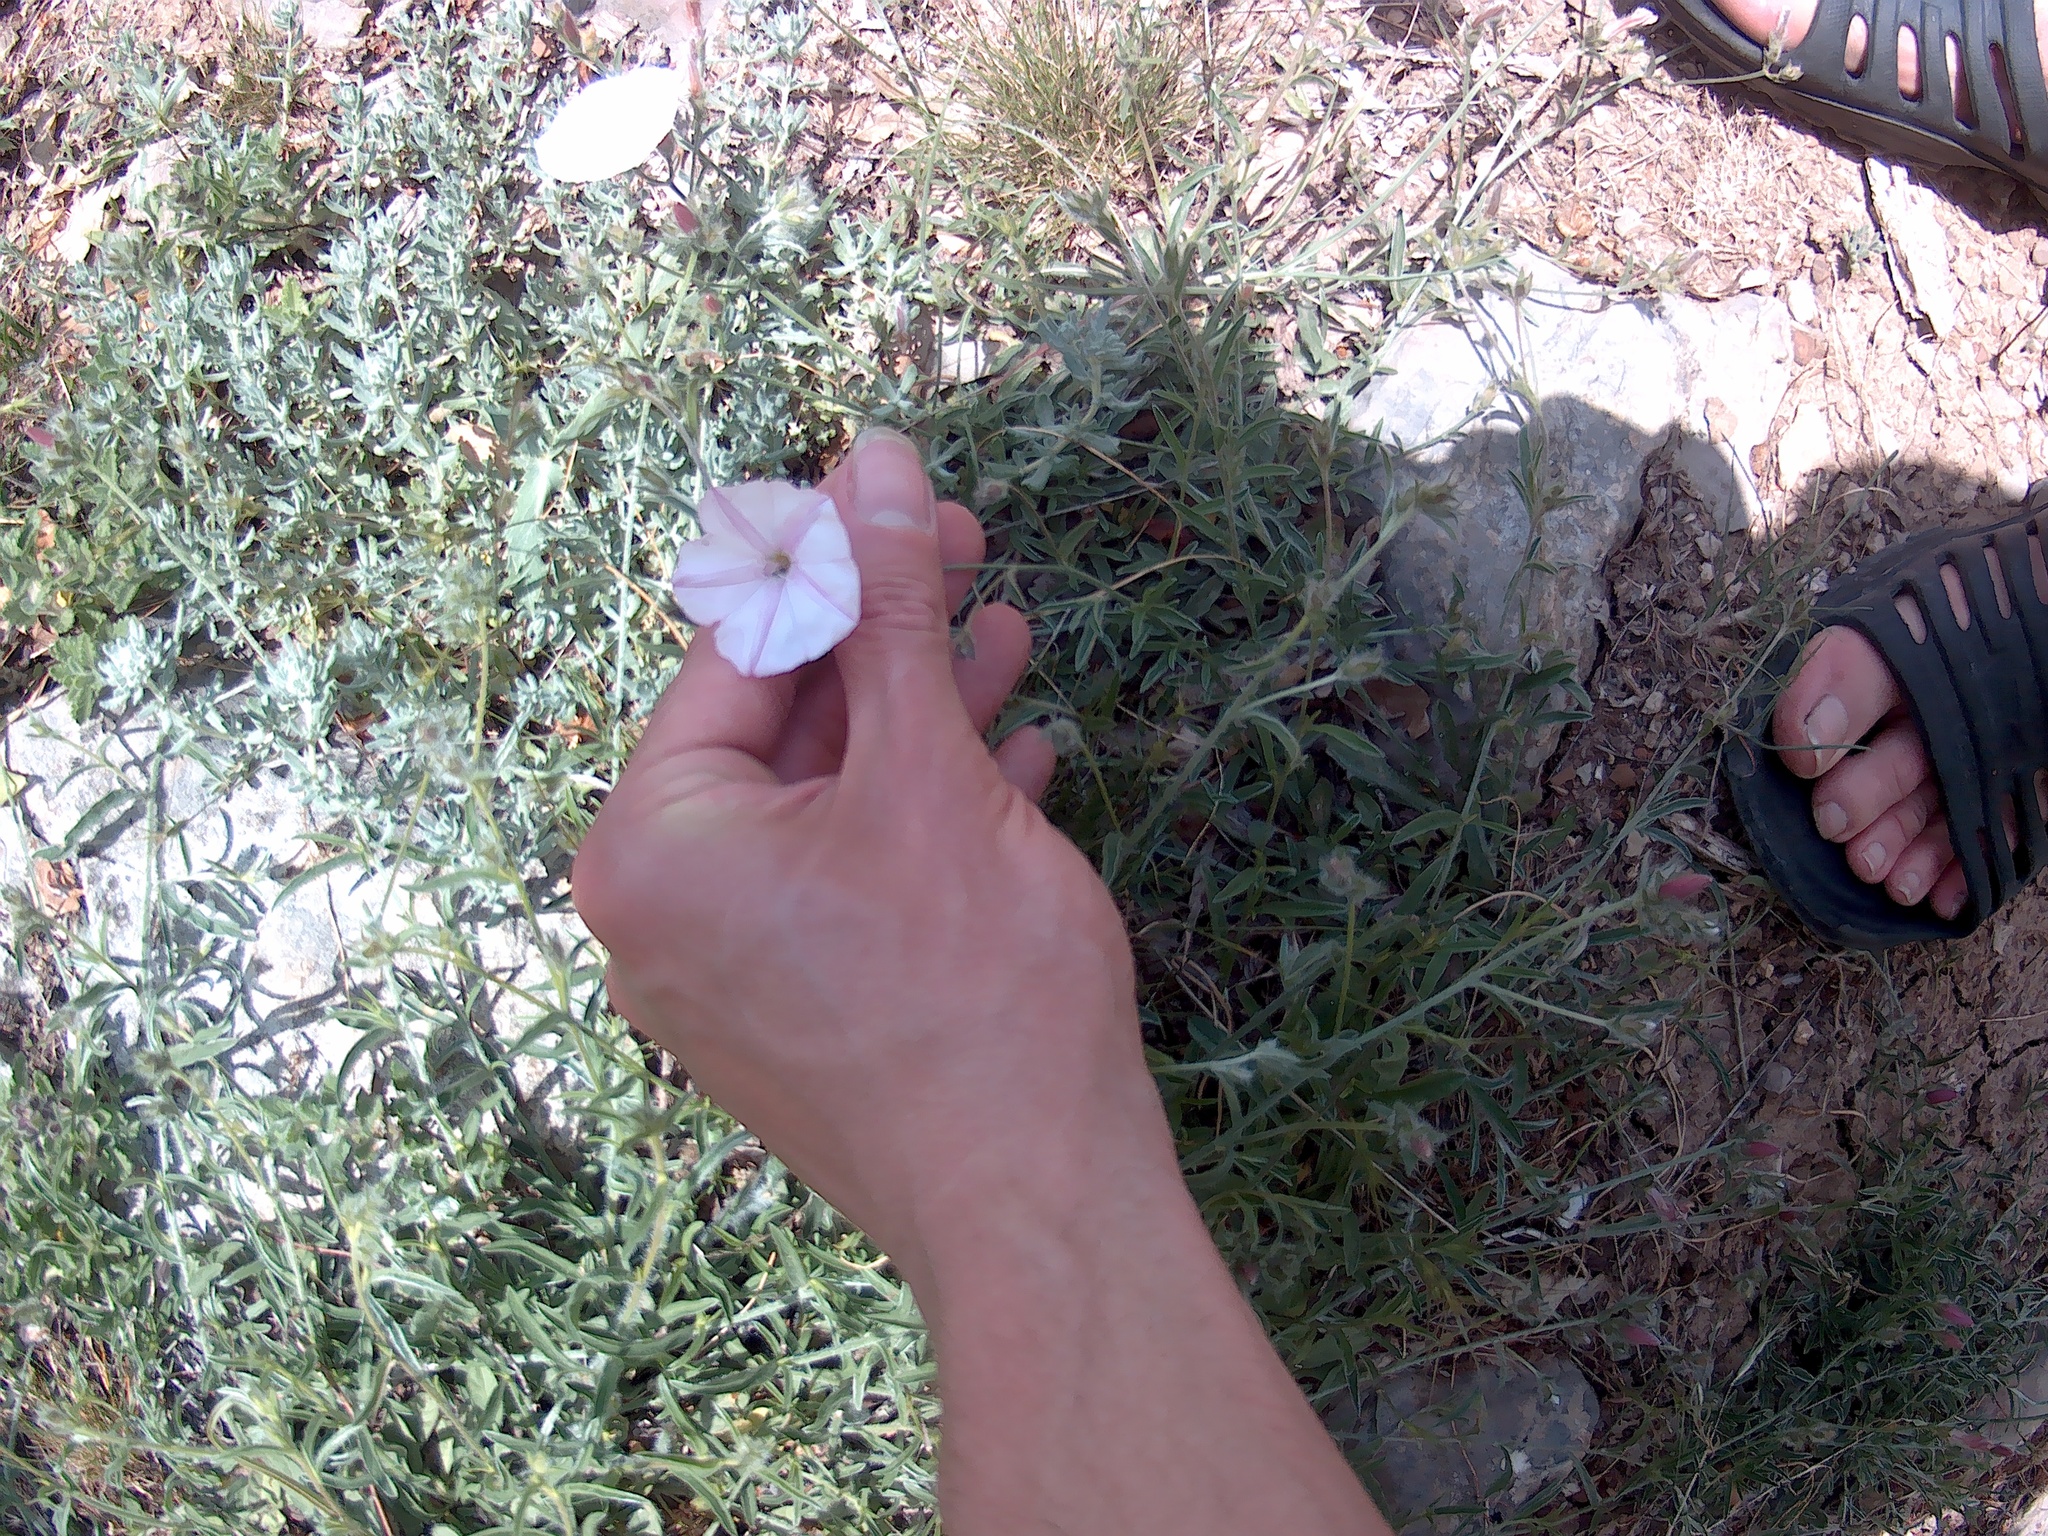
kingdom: Plantae
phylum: Tracheophyta
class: Magnoliopsida
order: Solanales
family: Convolvulaceae
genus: Convolvulus
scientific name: Convolvulus cantabrica
